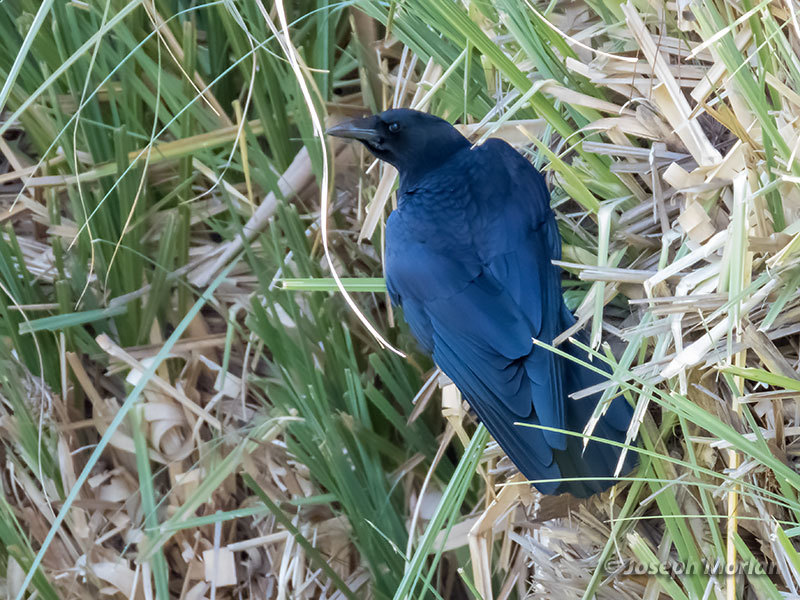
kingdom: Animalia
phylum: Chordata
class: Aves
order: Passeriformes
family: Corvidae
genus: Corvus
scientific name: Corvus brachyrhynchos
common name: American crow
